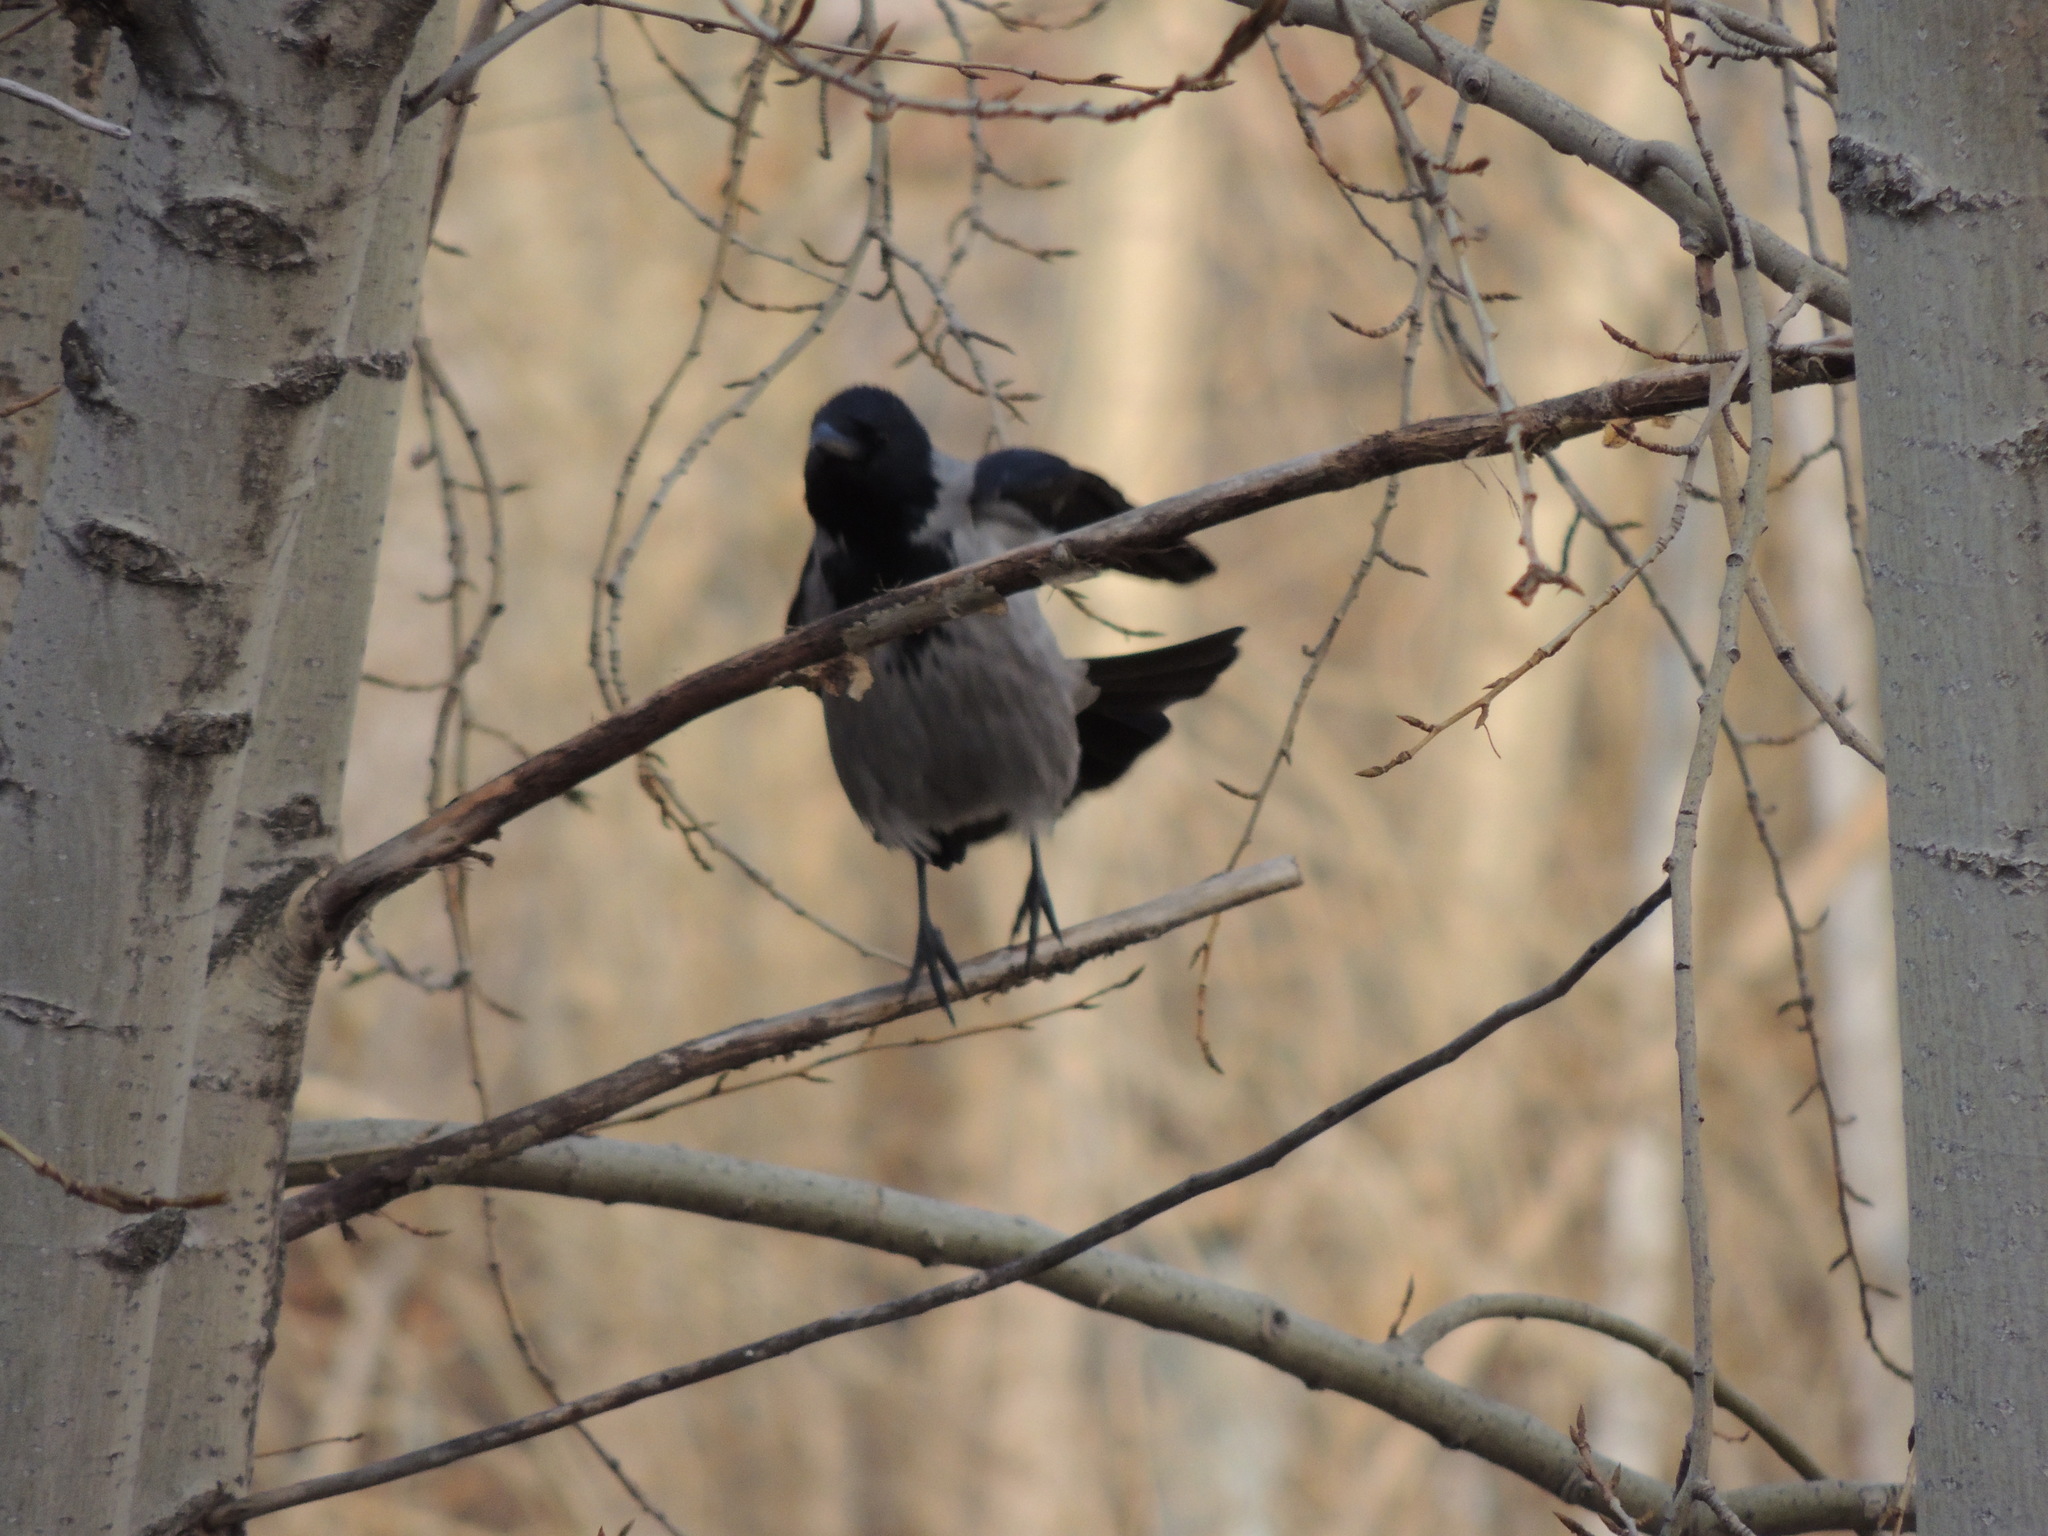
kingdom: Animalia
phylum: Chordata
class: Aves
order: Passeriformes
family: Corvidae
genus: Corvus
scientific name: Corvus cornix
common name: Hooded crow
